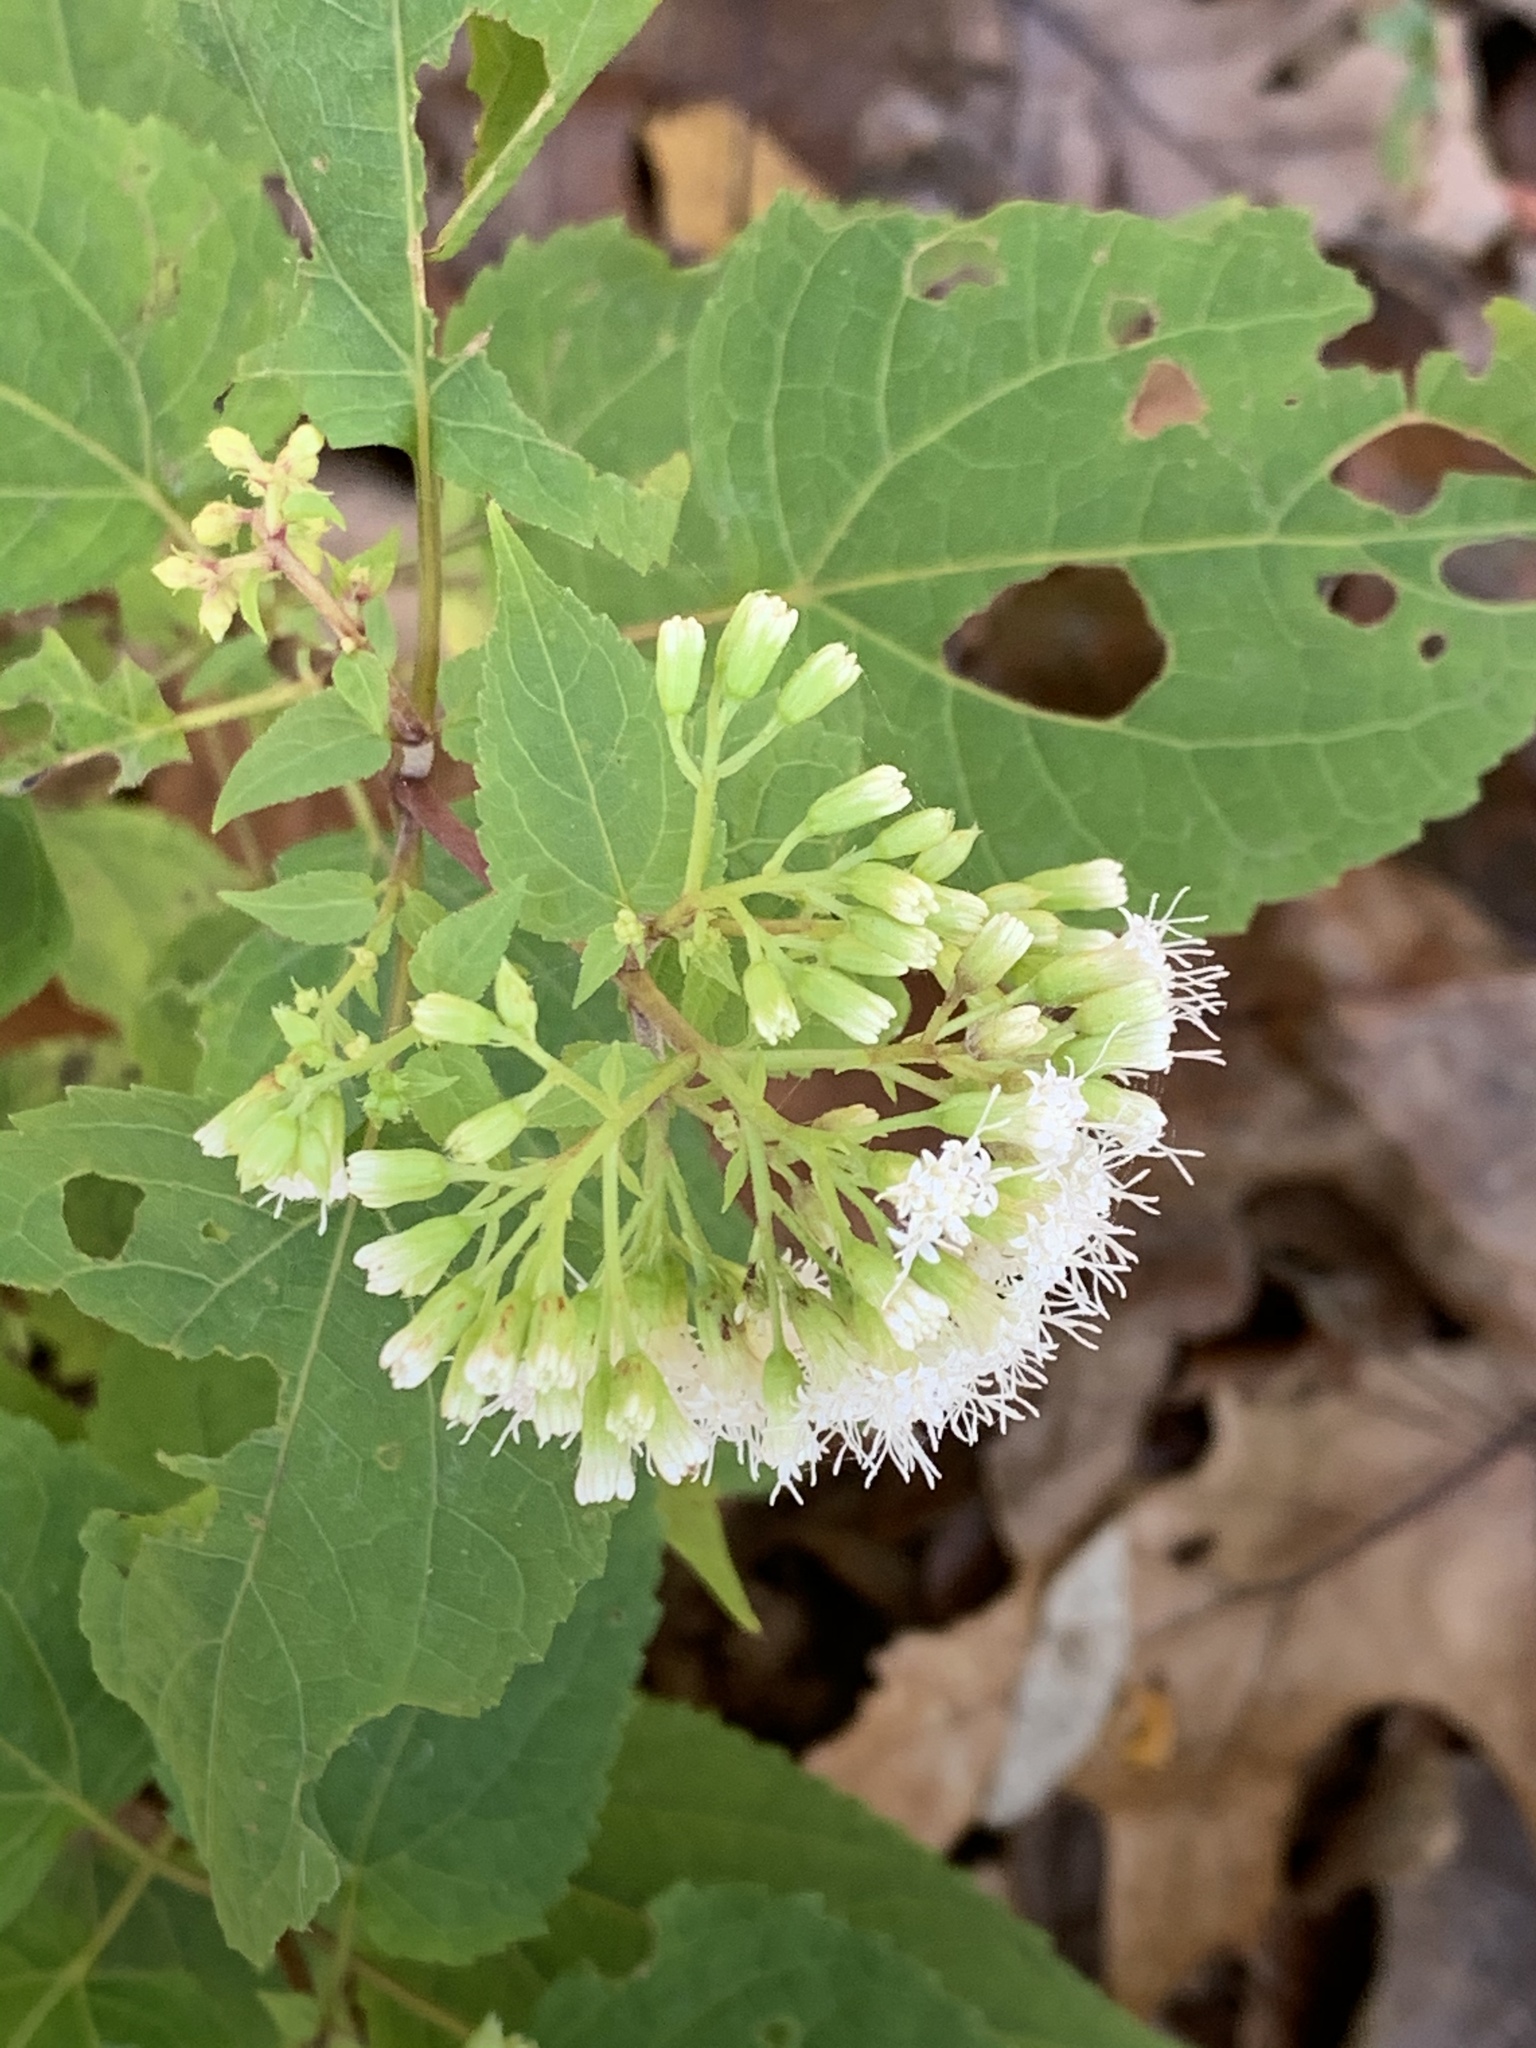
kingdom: Plantae
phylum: Tracheophyta
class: Magnoliopsida
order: Asterales
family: Asteraceae
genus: Ageratina
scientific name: Ageratina altissima
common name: White snakeroot
